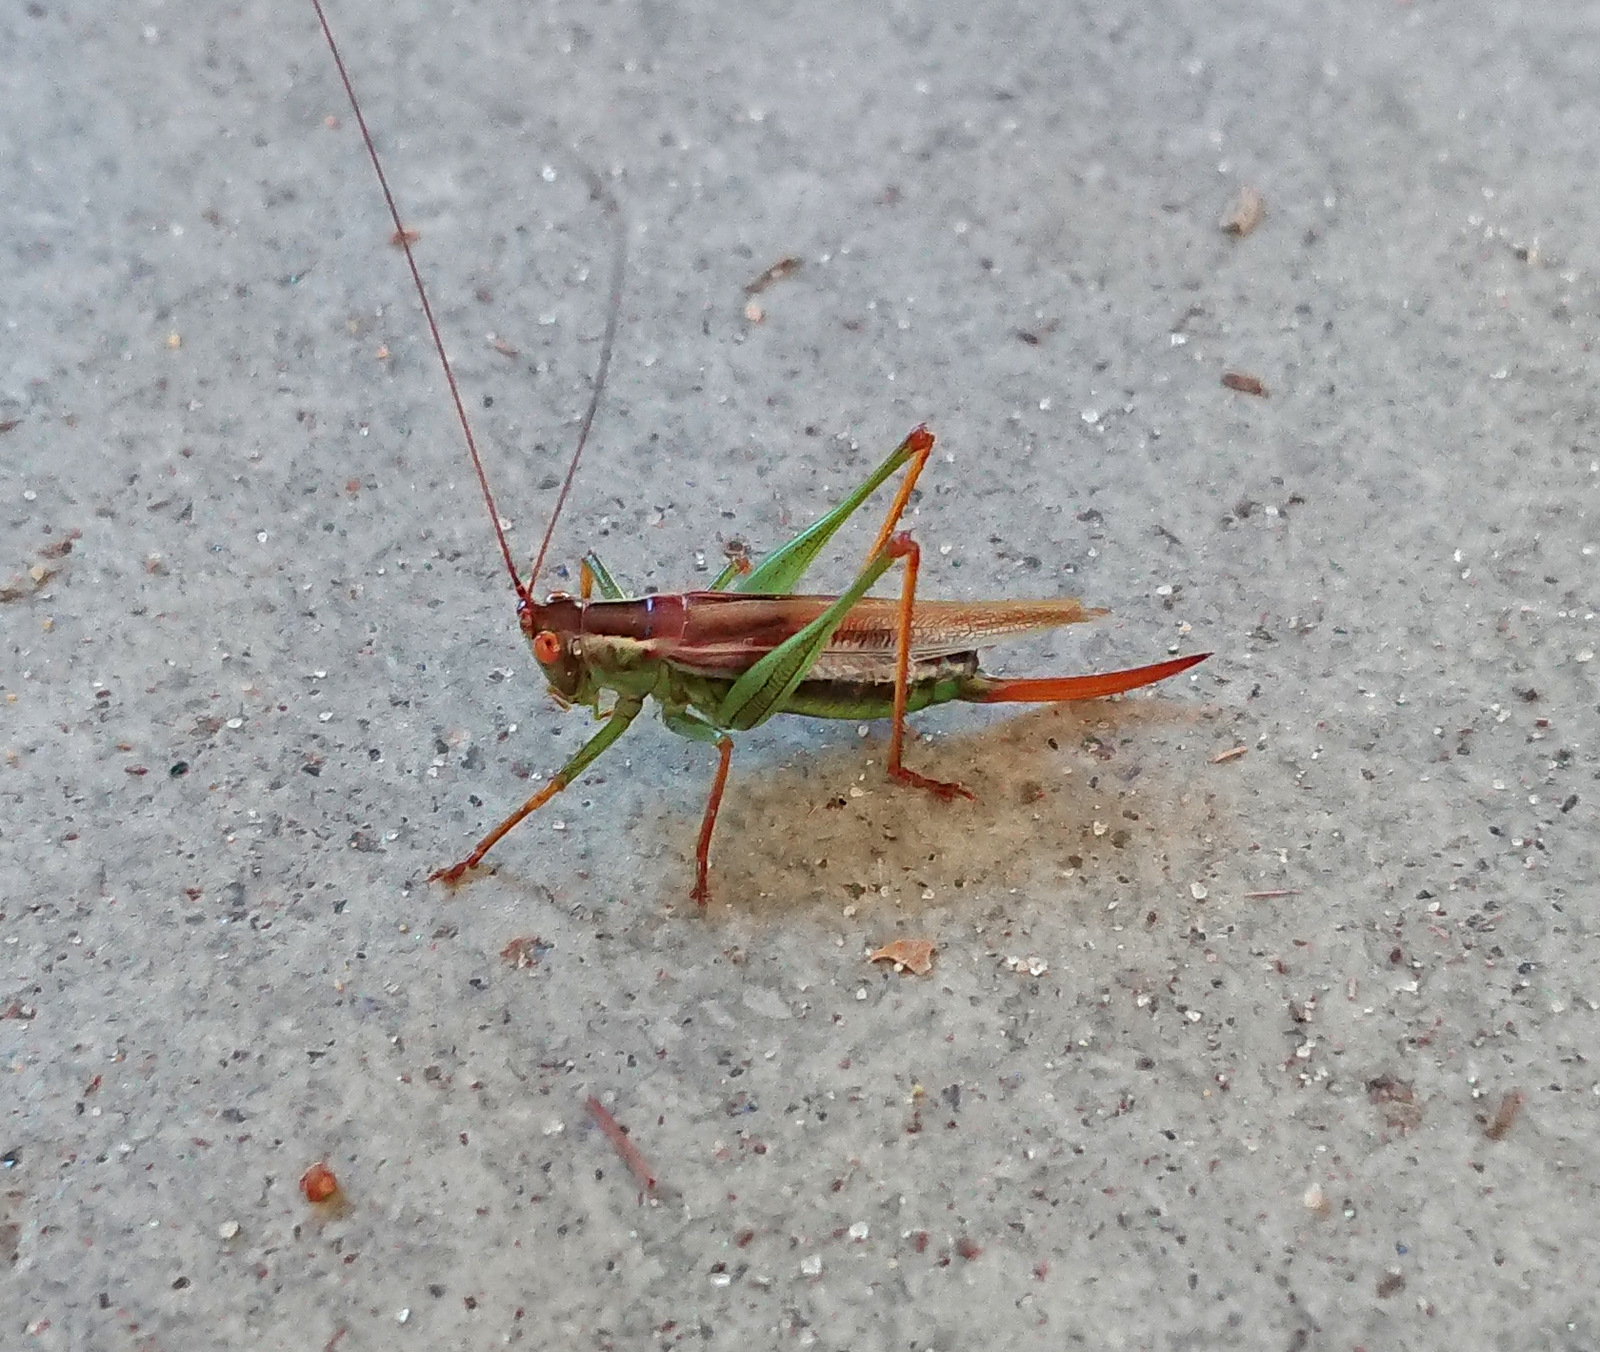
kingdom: Animalia
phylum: Arthropoda
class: Insecta
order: Orthoptera
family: Tettigoniidae
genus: Orchelimum
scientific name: Orchelimum minor
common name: Lesser pine meadow katydid
